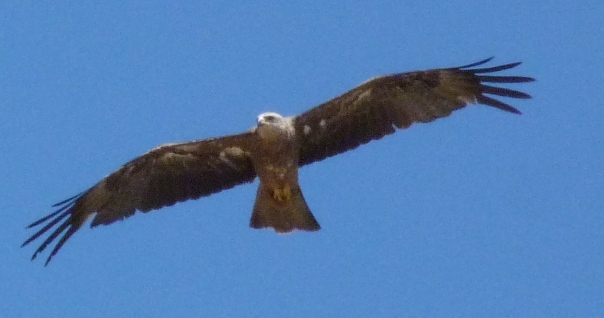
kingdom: Animalia
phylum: Chordata
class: Aves
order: Accipitriformes
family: Accipitridae
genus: Milvus
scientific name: Milvus migrans
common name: Black kite
